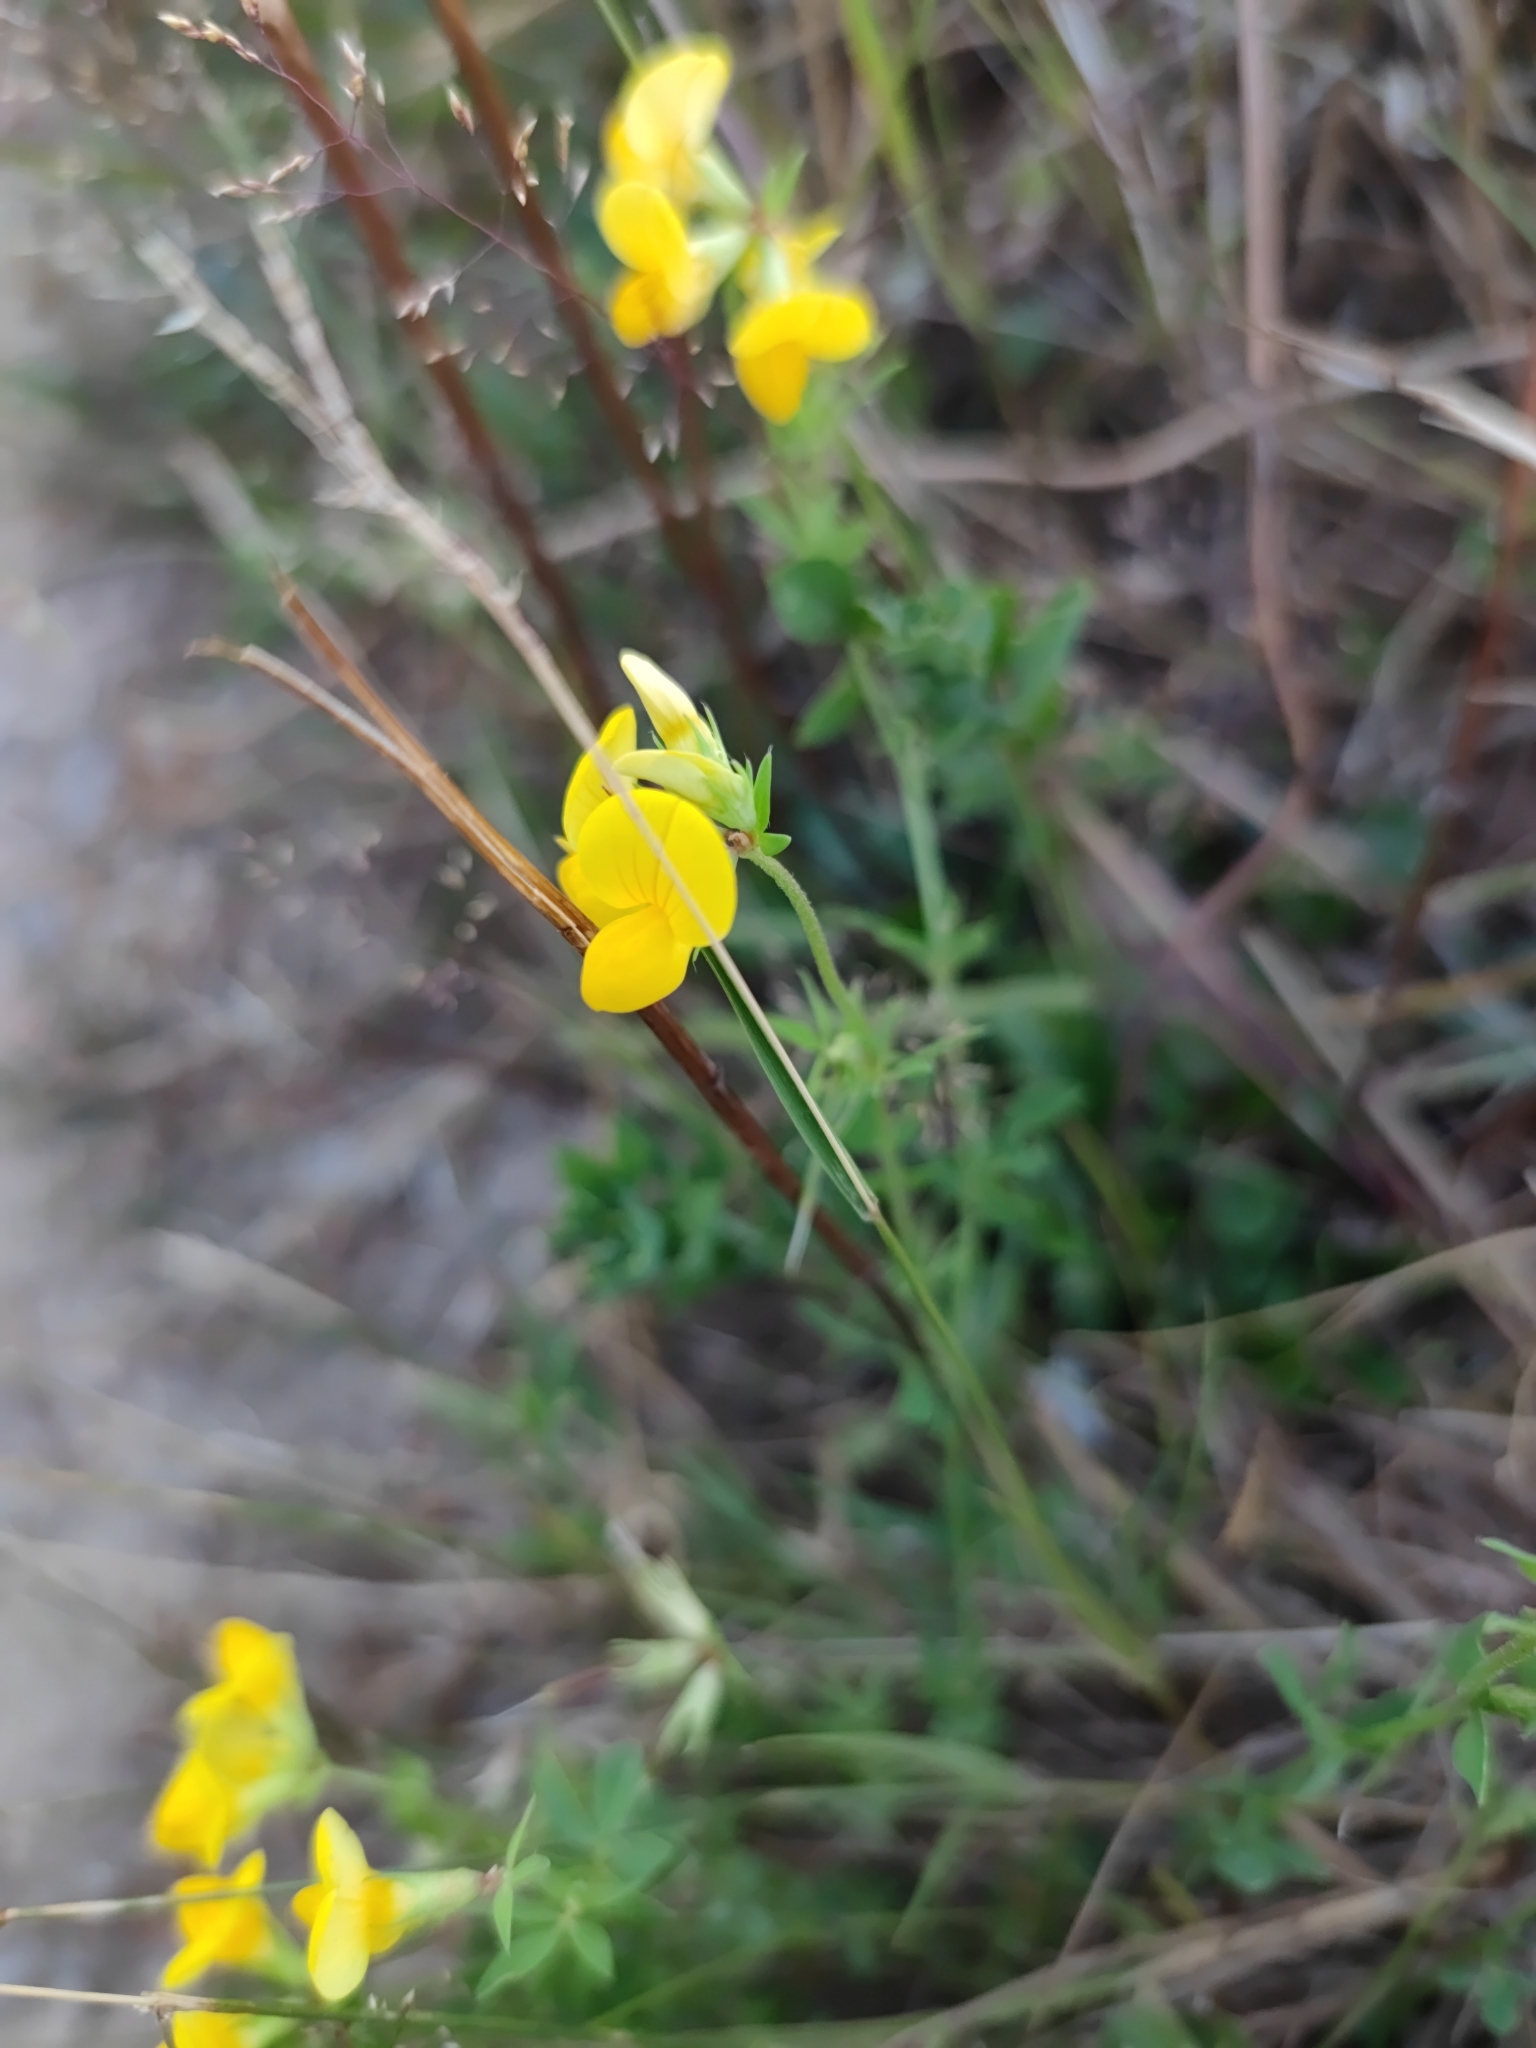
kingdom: Plantae
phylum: Tracheophyta
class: Magnoliopsida
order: Fabales
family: Fabaceae
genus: Lotus
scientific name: Lotus corniculatus
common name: Common bird's-foot-trefoil
